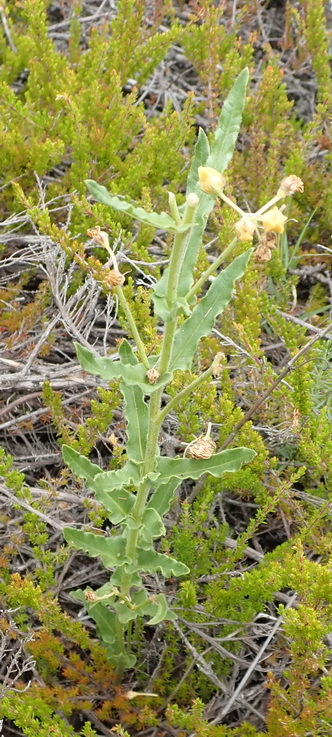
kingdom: Plantae
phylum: Tracheophyta
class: Magnoliopsida
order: Gentianales
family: Apocynaceae
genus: Asclepias
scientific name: Asclepias crispa
